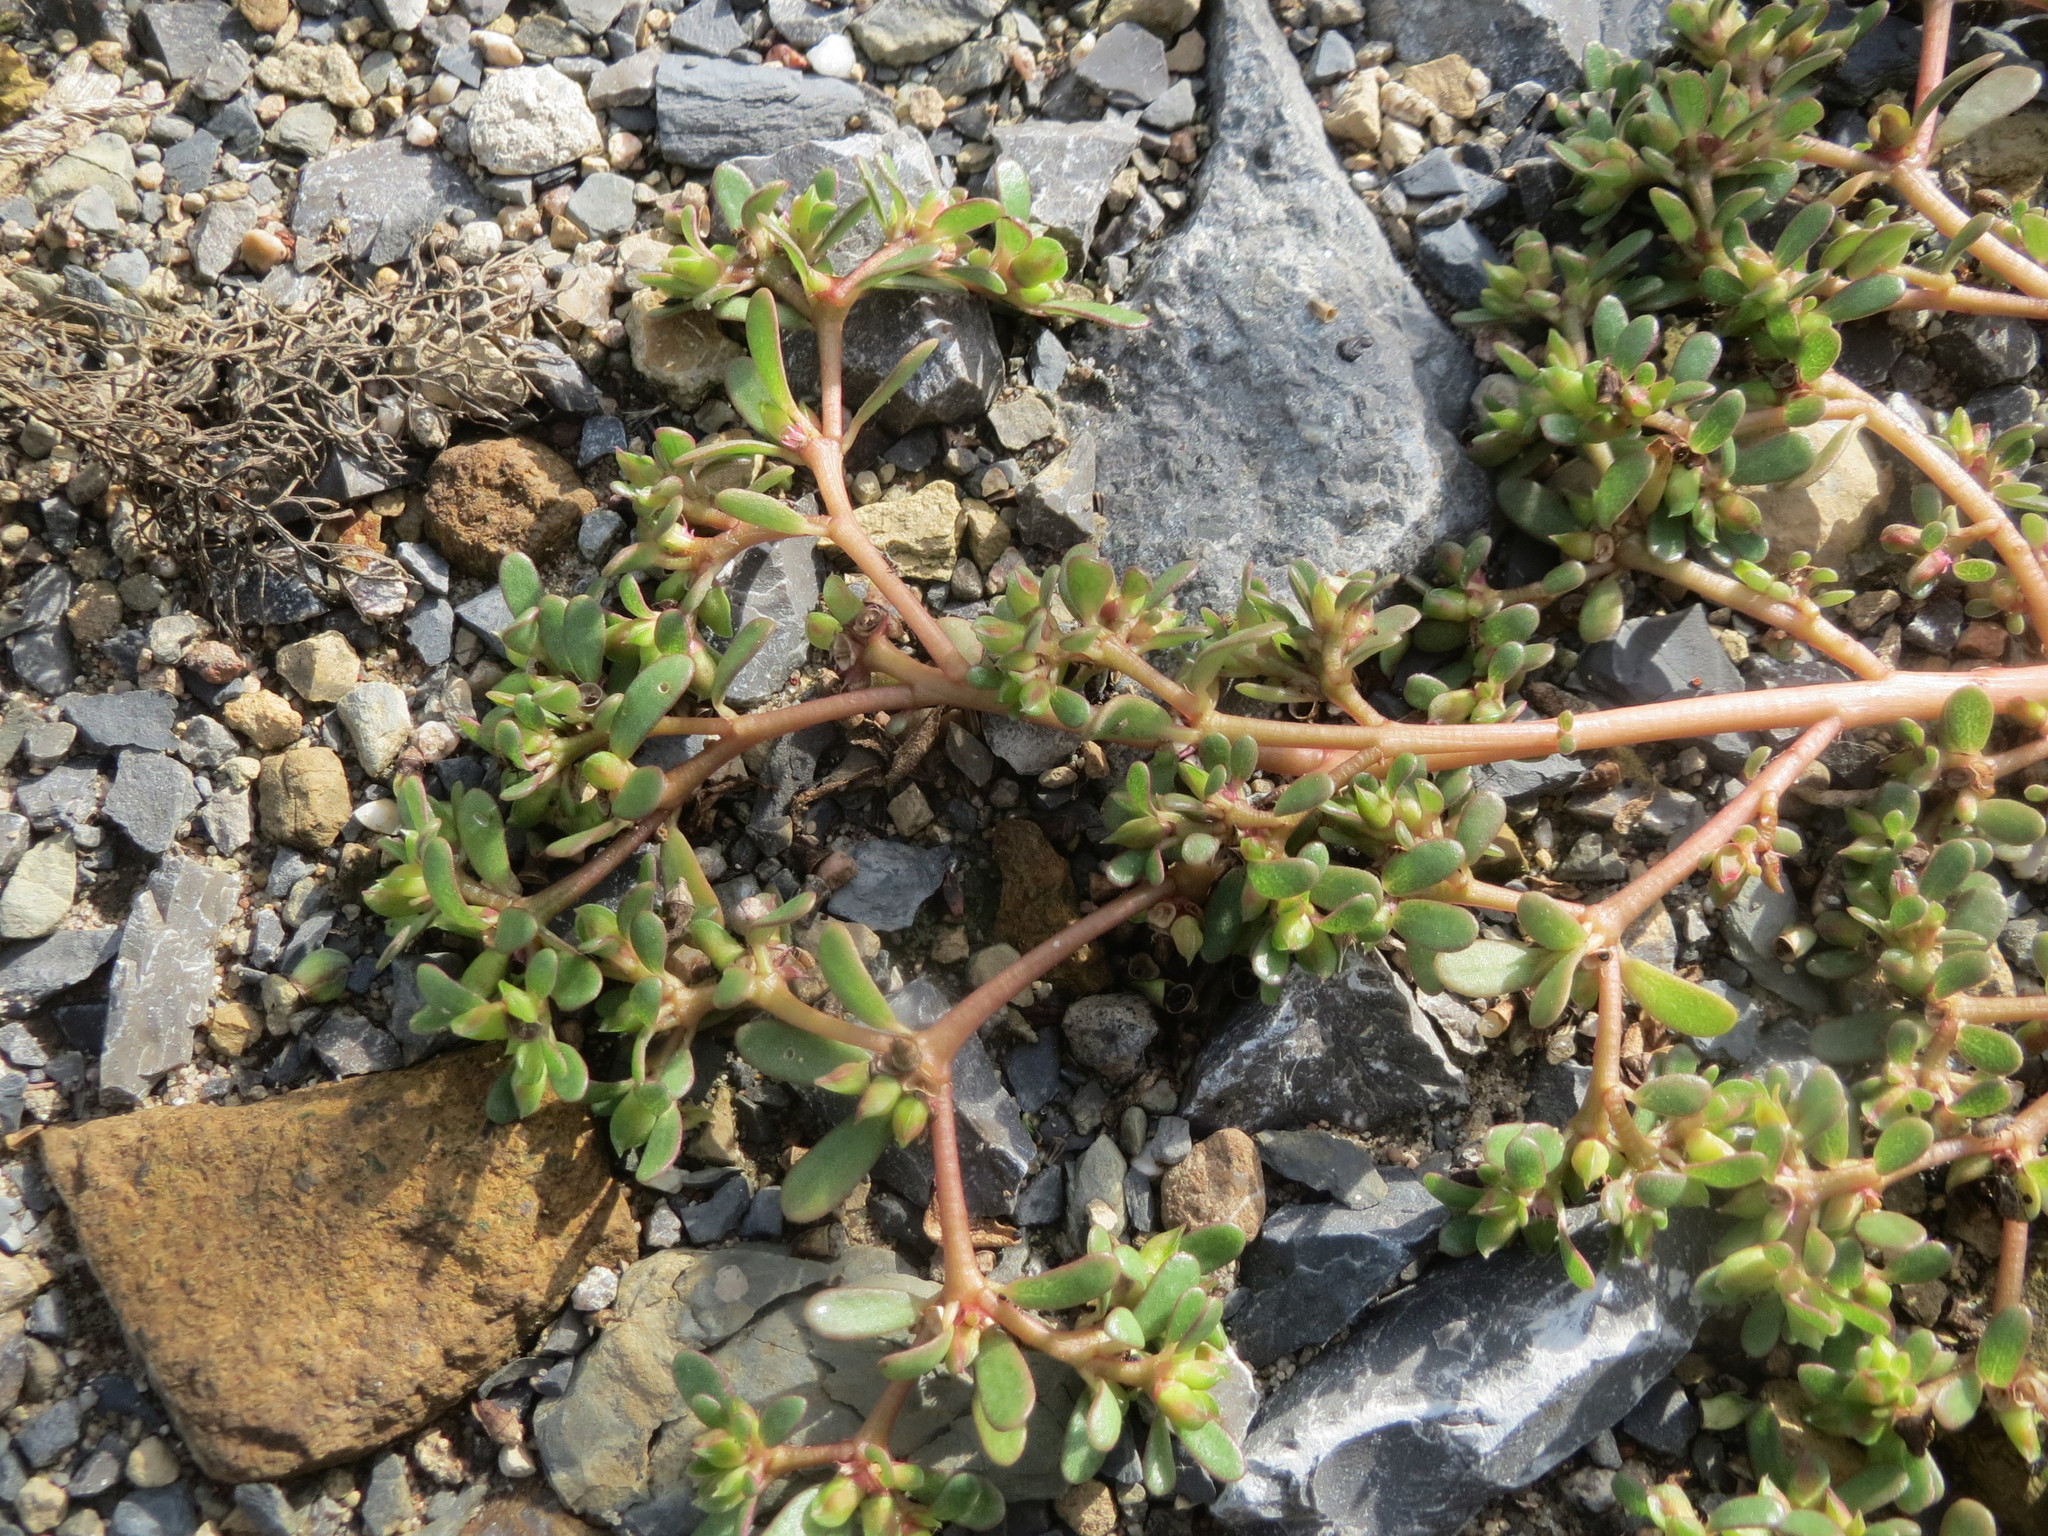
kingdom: Plantae
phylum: Tracheophyta
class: Magnoliopsida
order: Caryophyllales
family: Portulacaceae
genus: Portulaca
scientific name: Portulaca oleracea
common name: Common purslane
